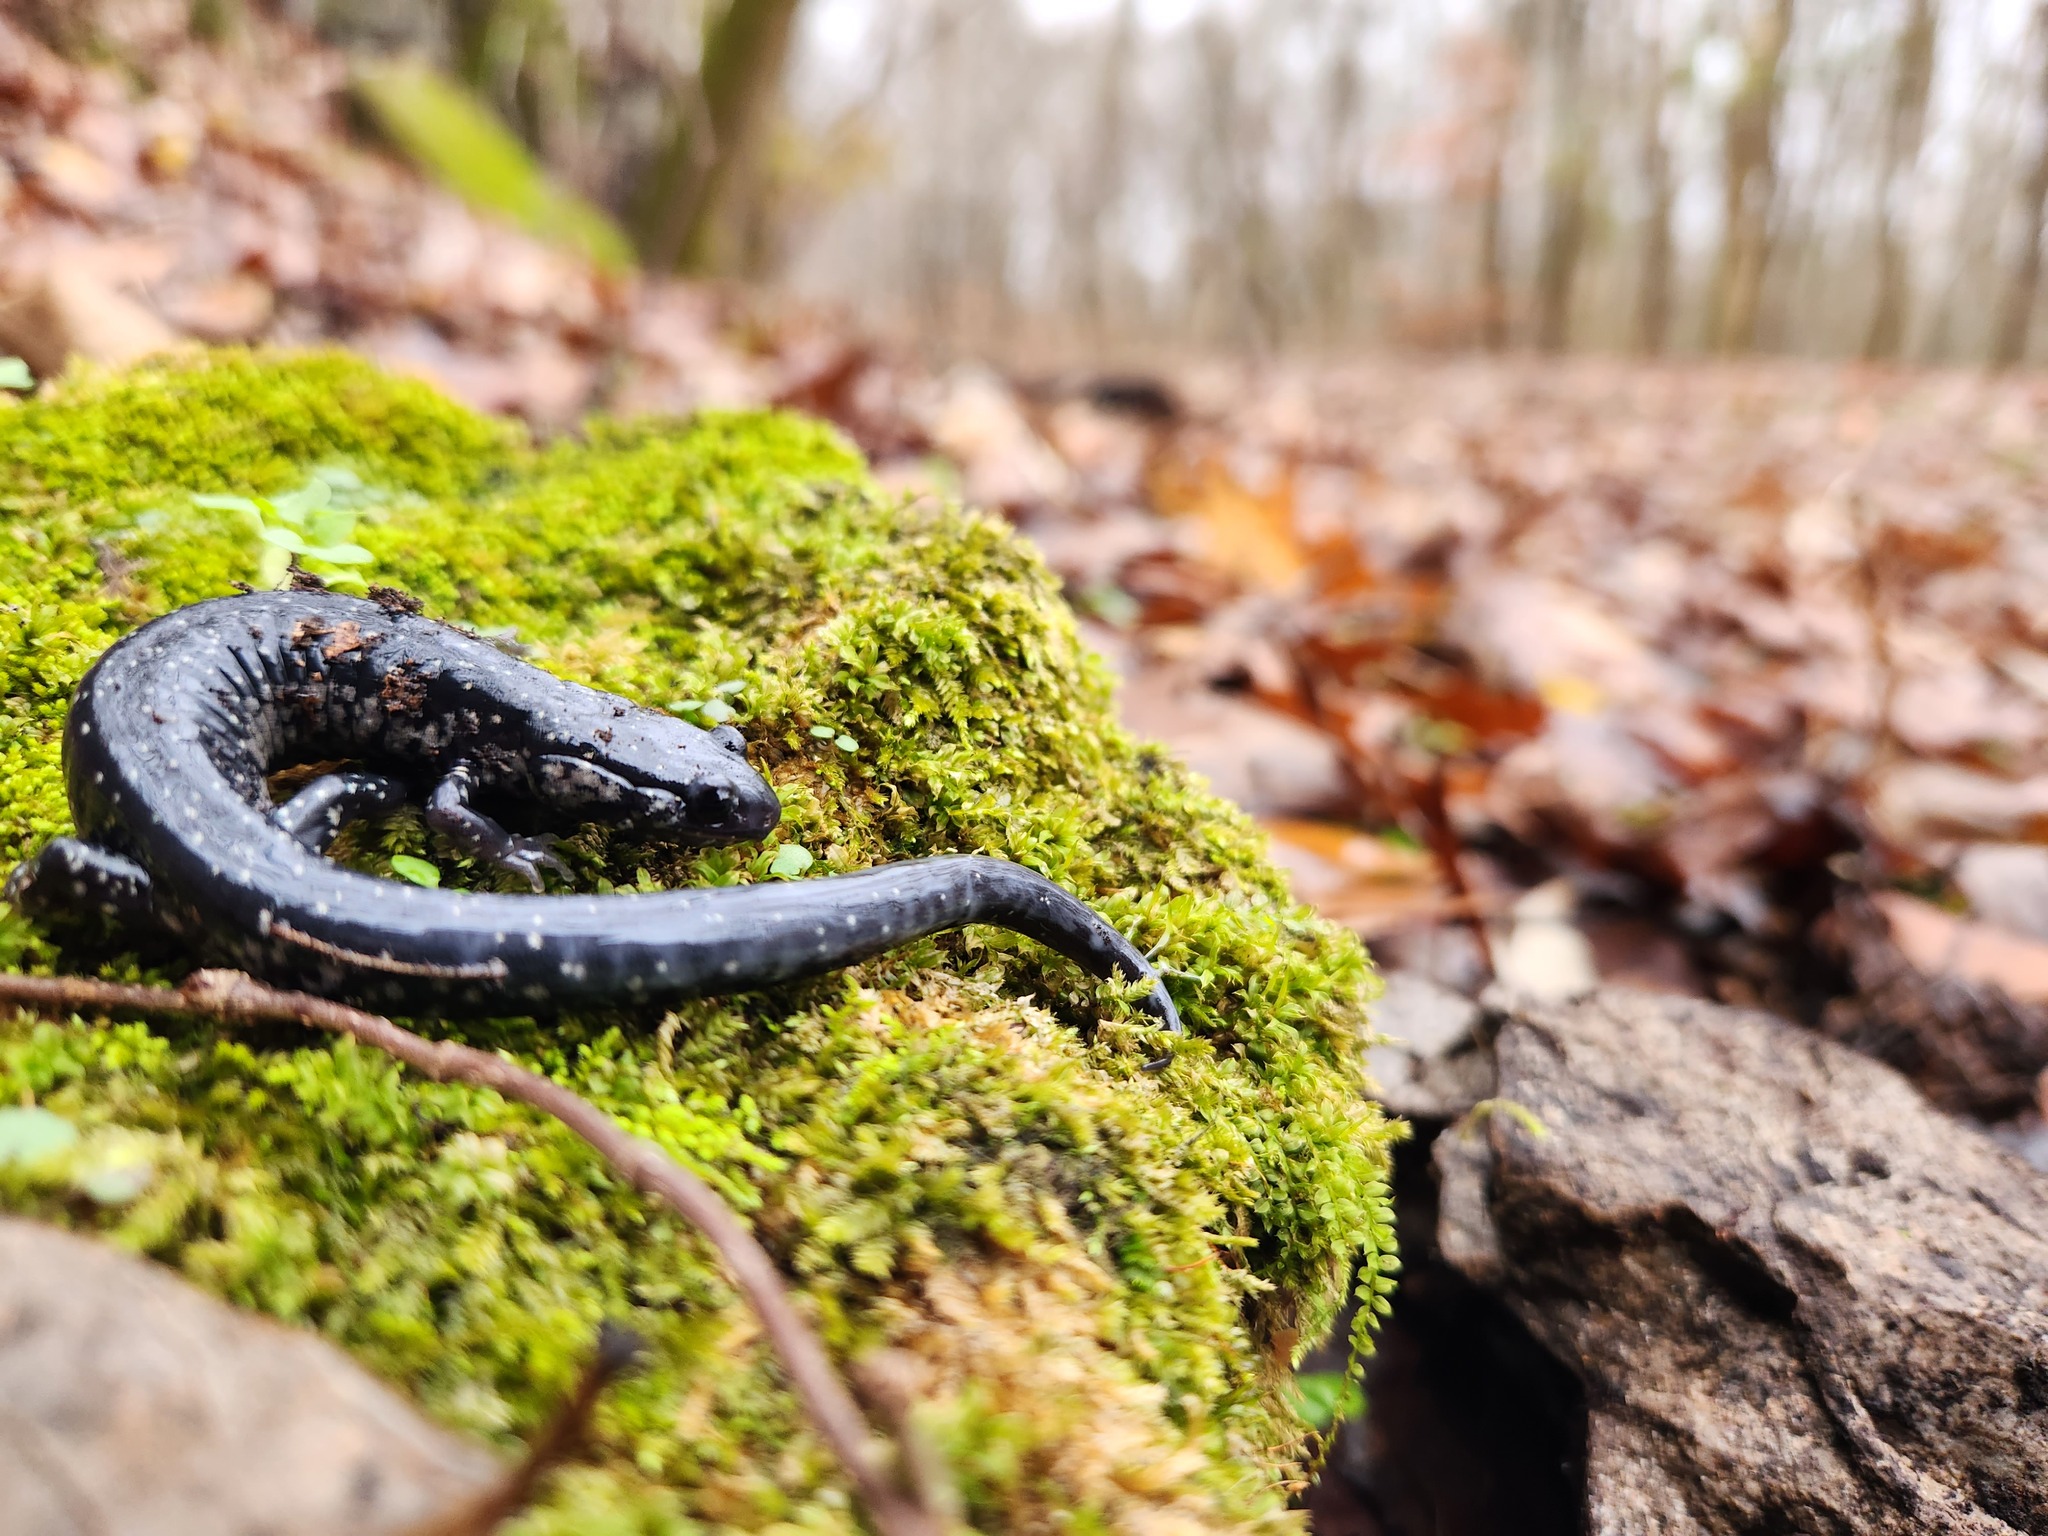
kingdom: Animalia
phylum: Chordata
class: Amphibia
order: Caudata
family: Plethodontidae
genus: Plethodon
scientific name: Plethodon glutinosus
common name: Northern slimy salamander
